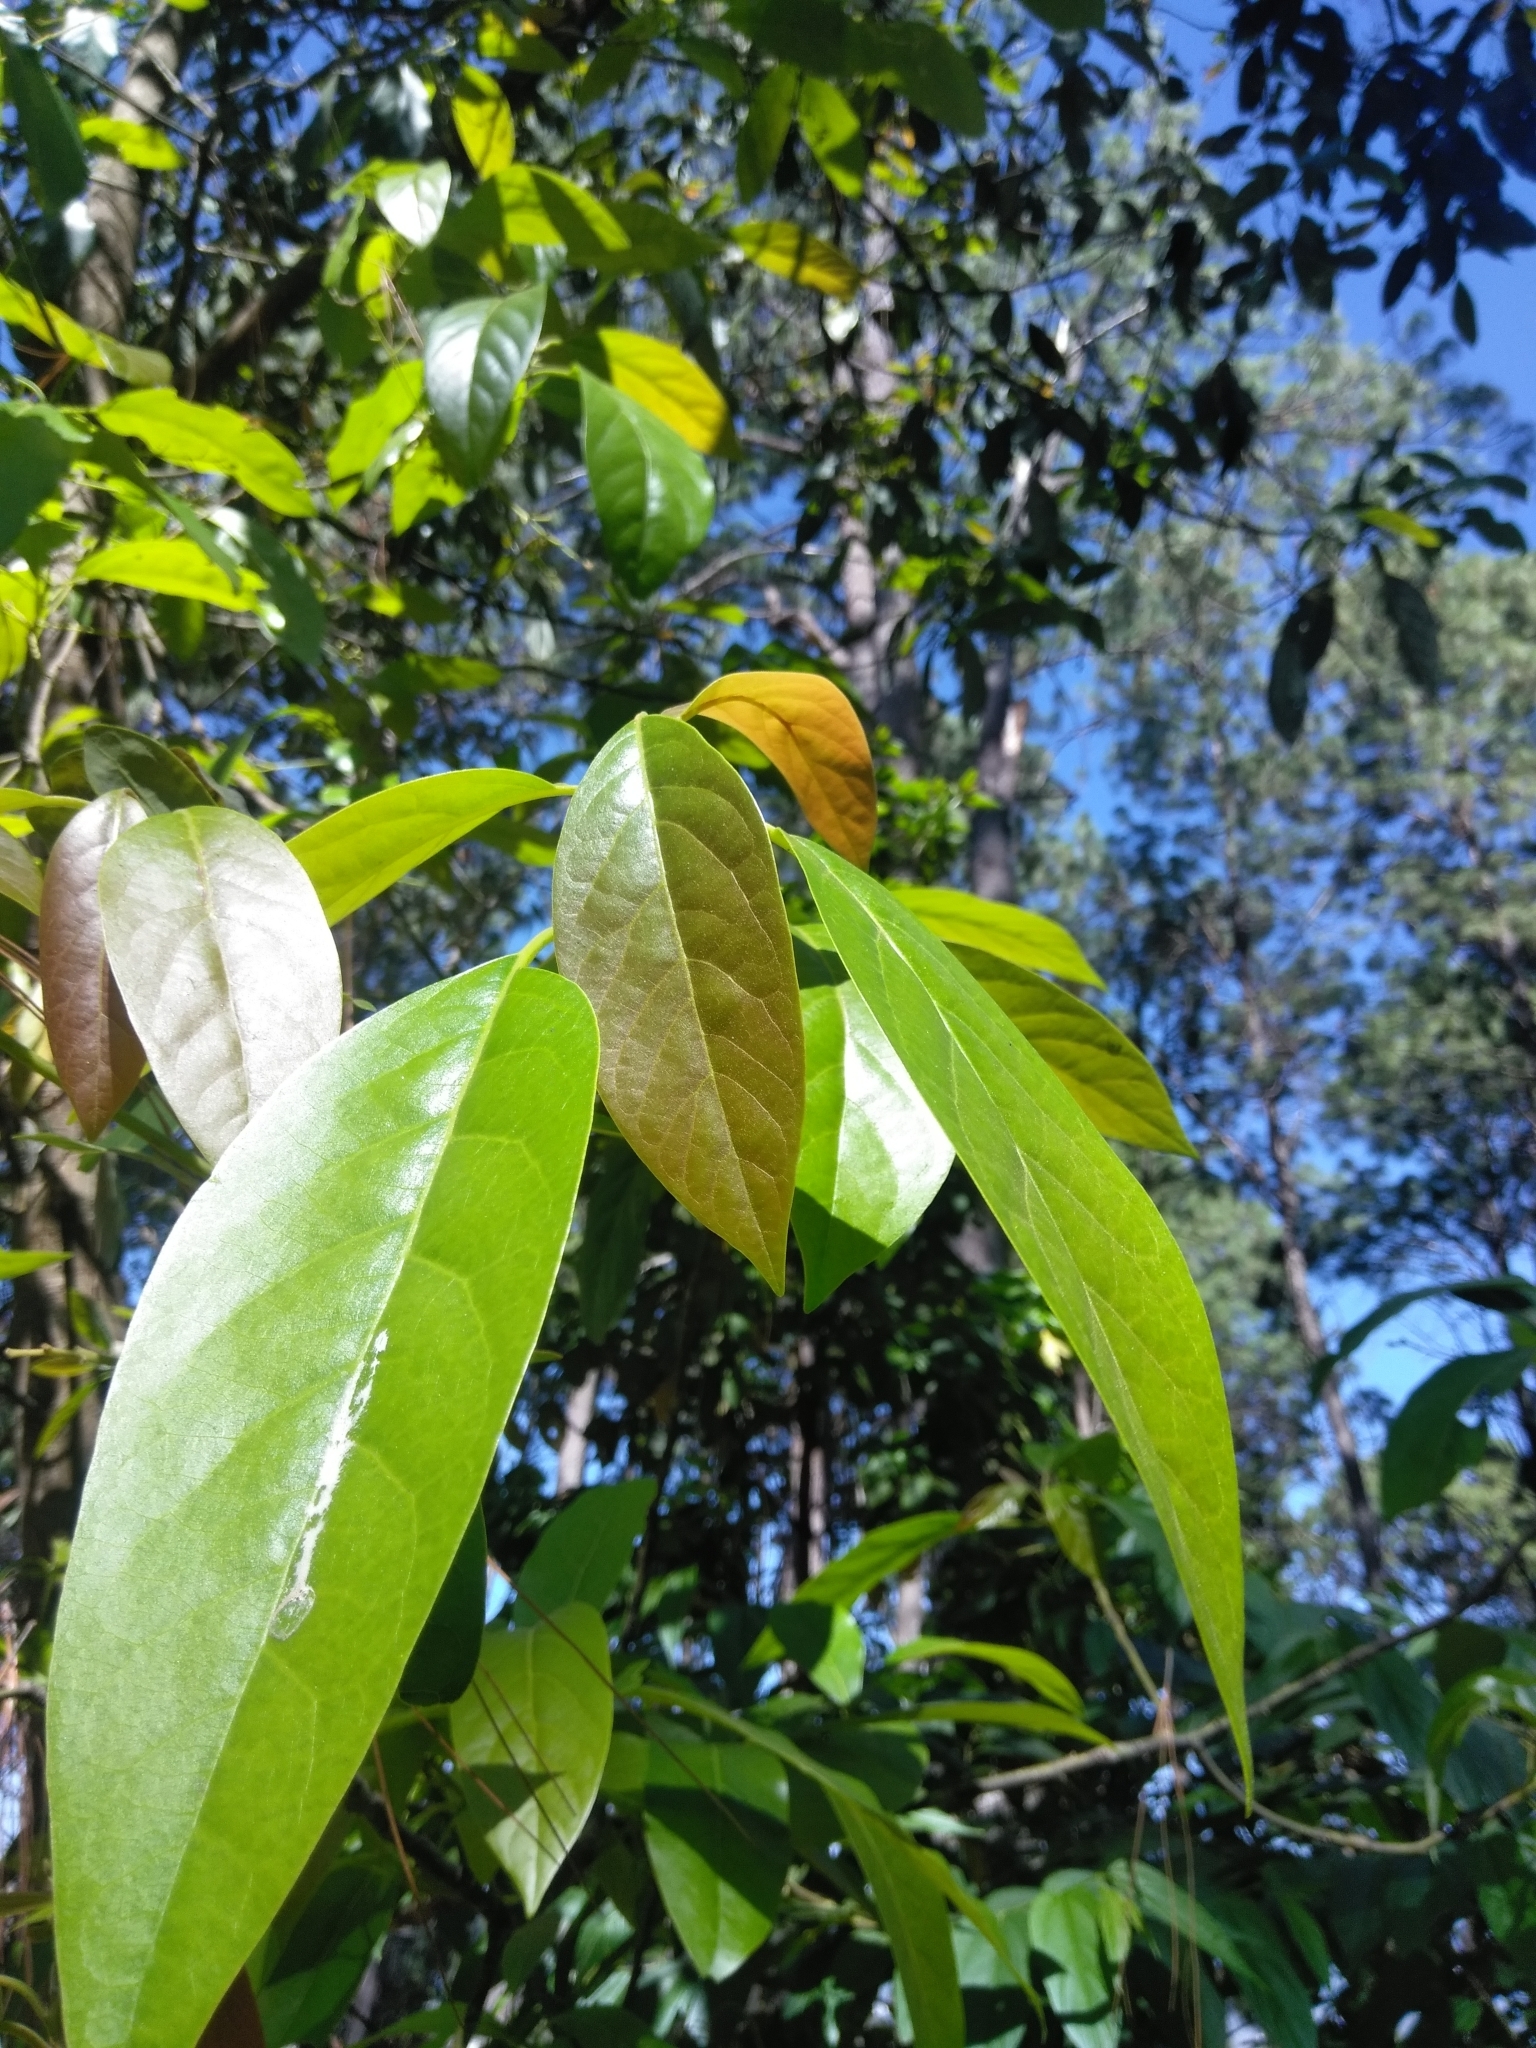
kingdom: Plantae
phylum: Tracheophyta
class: Magnoliopsida
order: Laurales
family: Lauraceae
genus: Persea
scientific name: Persea americana
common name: Avocado
